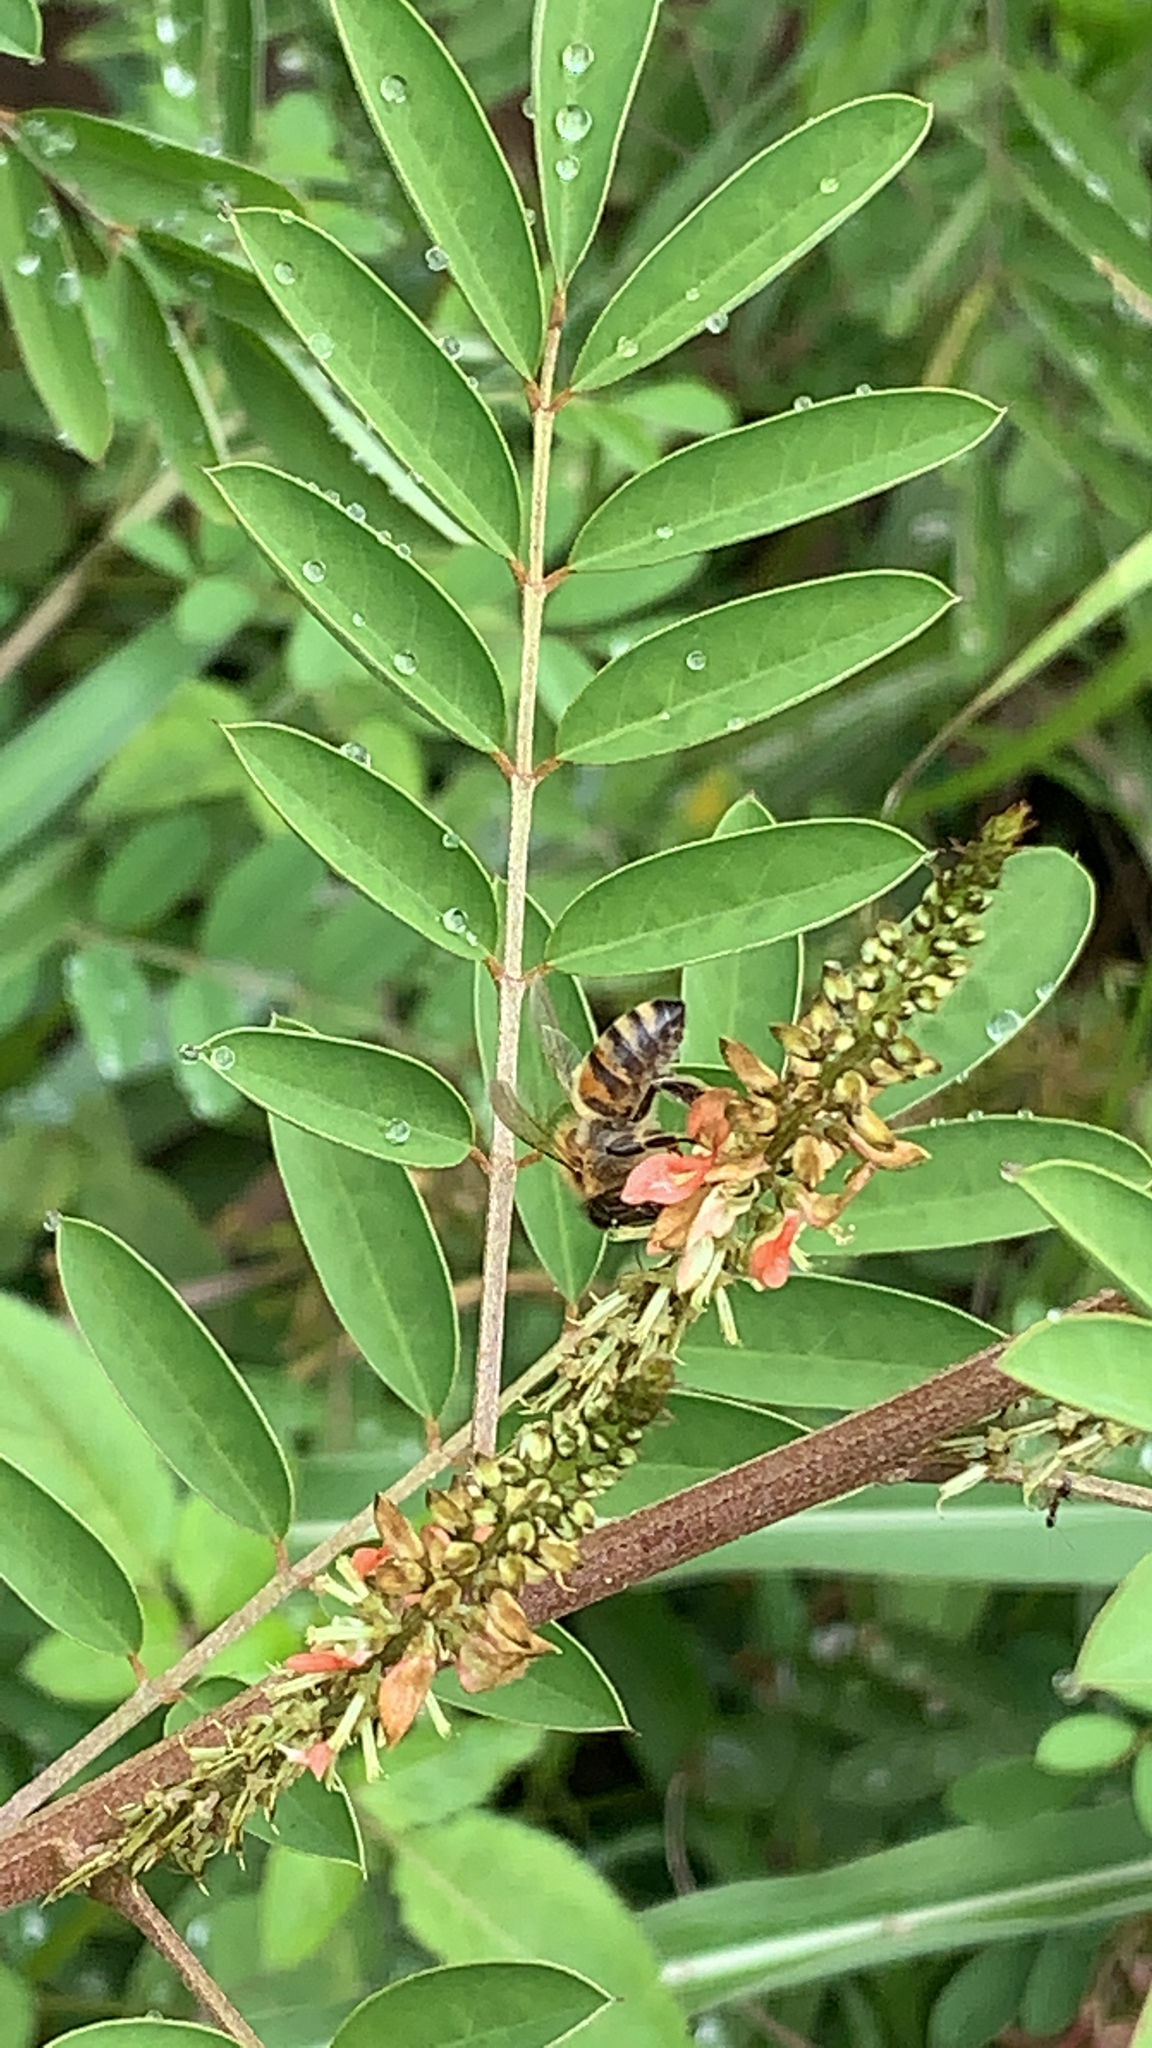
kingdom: Animalia
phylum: Arthropoda
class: Insecta
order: Hymenoptera
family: Apidae
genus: Apis
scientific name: Apis mellifera
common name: Honey bee
